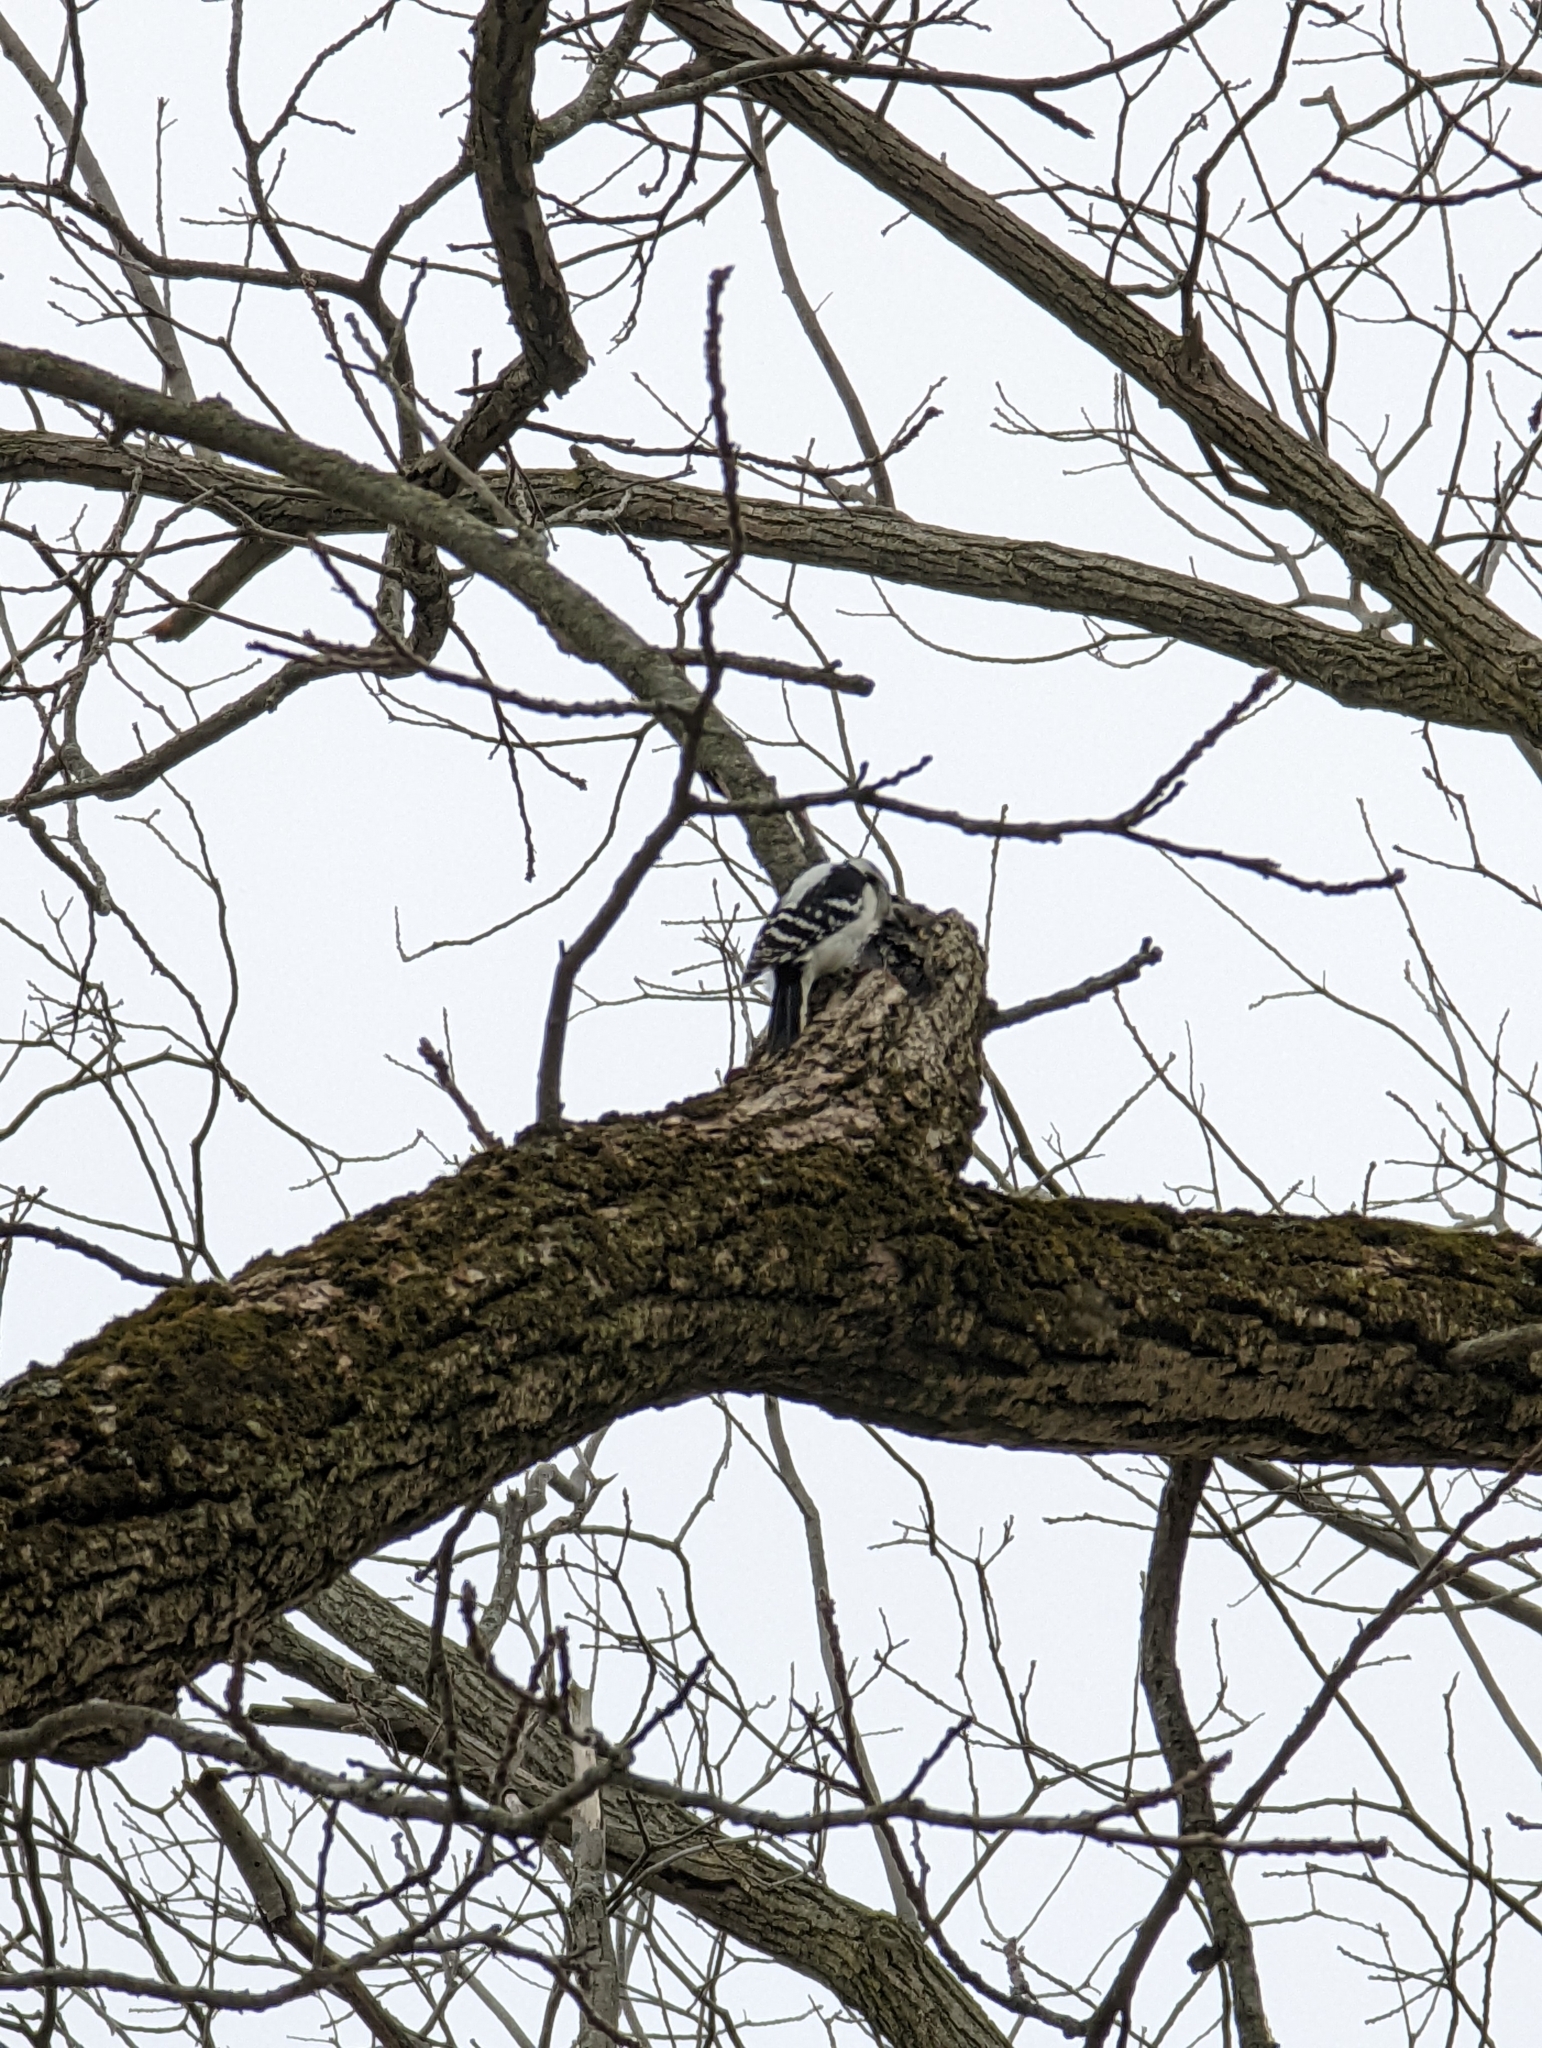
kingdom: Animalia
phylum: Chordata
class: Aves
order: Piciformes
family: Picidae
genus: Dryobates
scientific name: Dryobates pubescens
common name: Downy woodpecker
